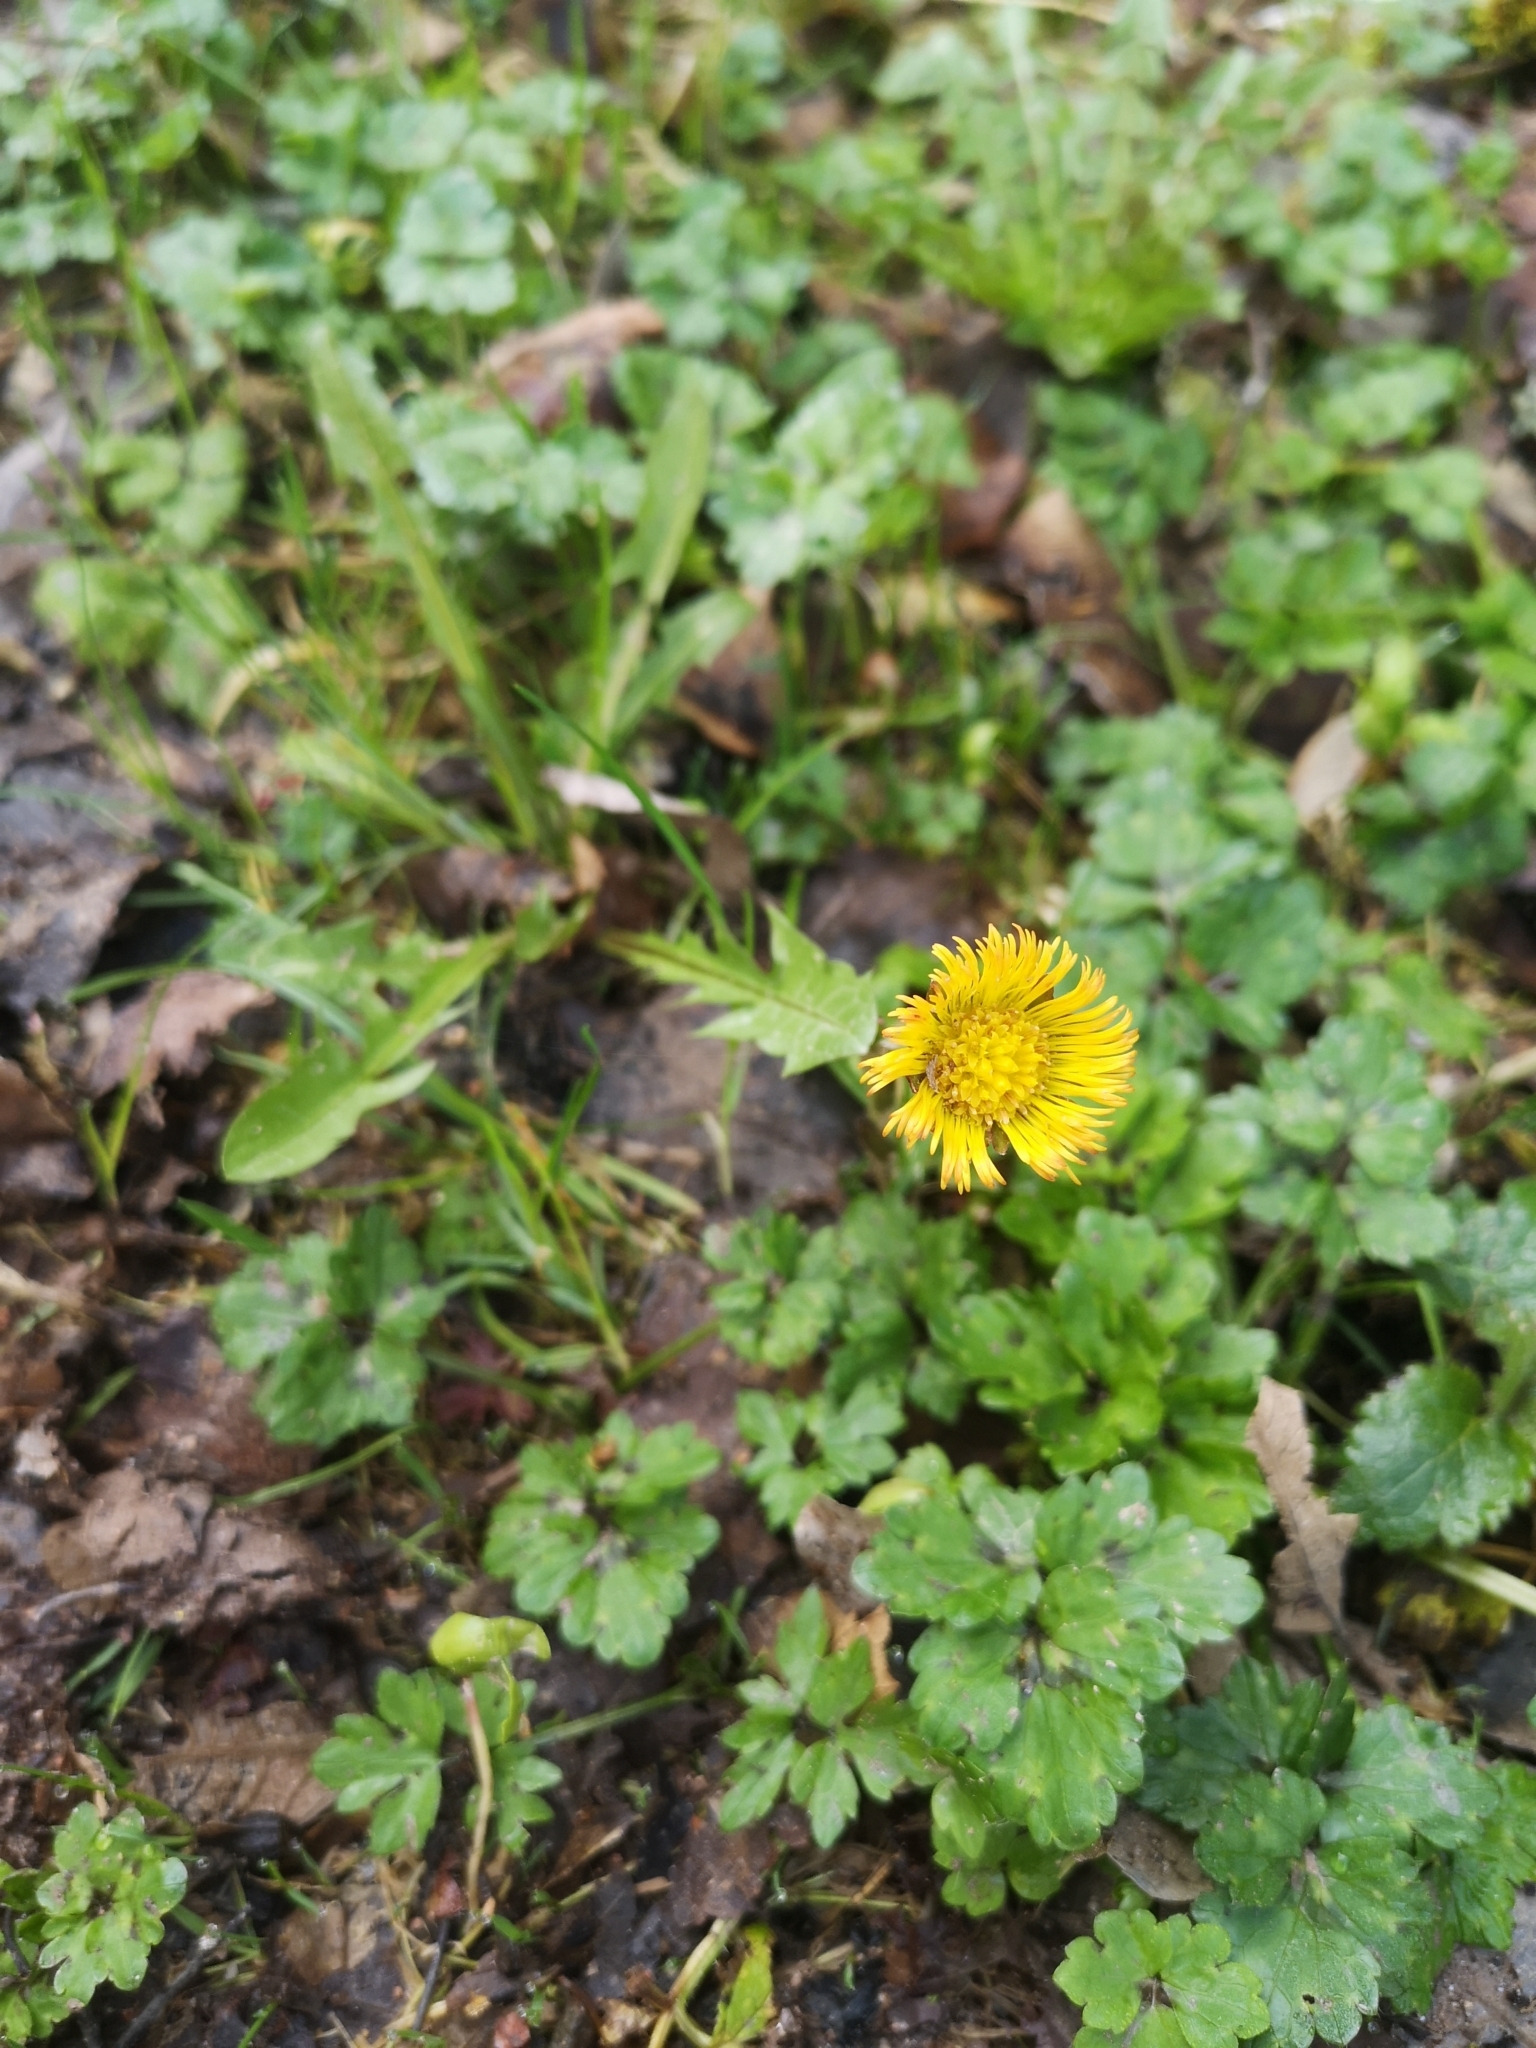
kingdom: Plantae
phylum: Tracheophyta
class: Magnoliopsida
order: Asterales
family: Asteraceae
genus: Tussilago
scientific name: Tussilago farfara
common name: Coltsfoot
